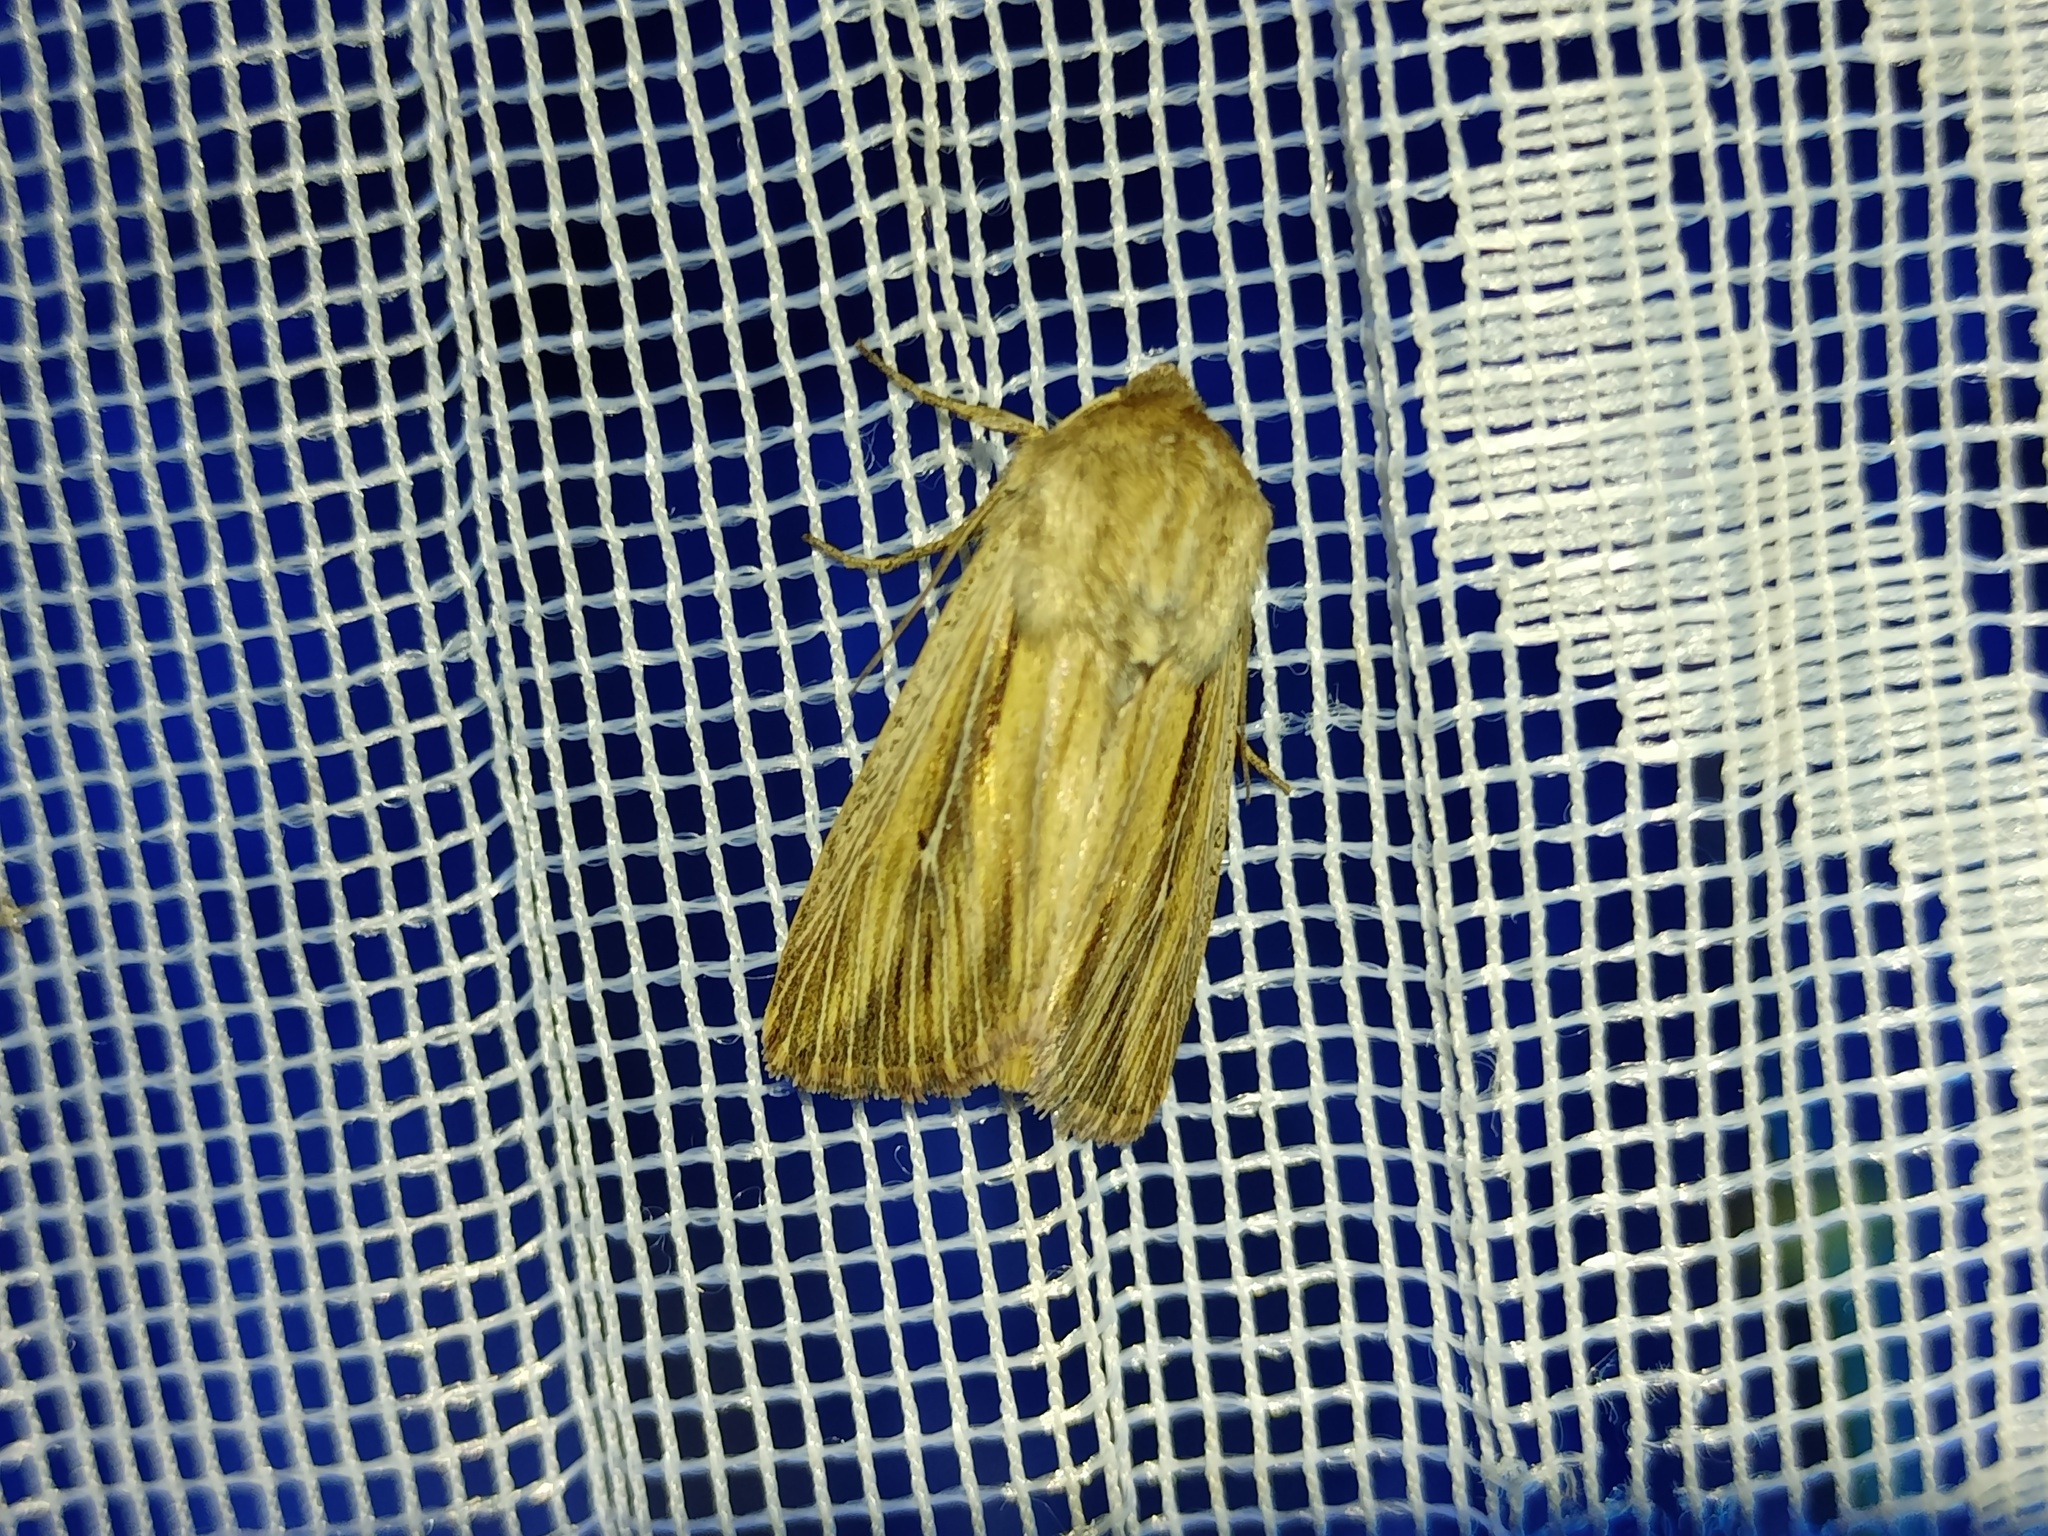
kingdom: Animalia
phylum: Arthropoda
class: Insecta
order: Lepidoptera
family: Noctuidae
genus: Leucania
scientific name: Leucania comma
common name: Shoulder-striped wainscot
